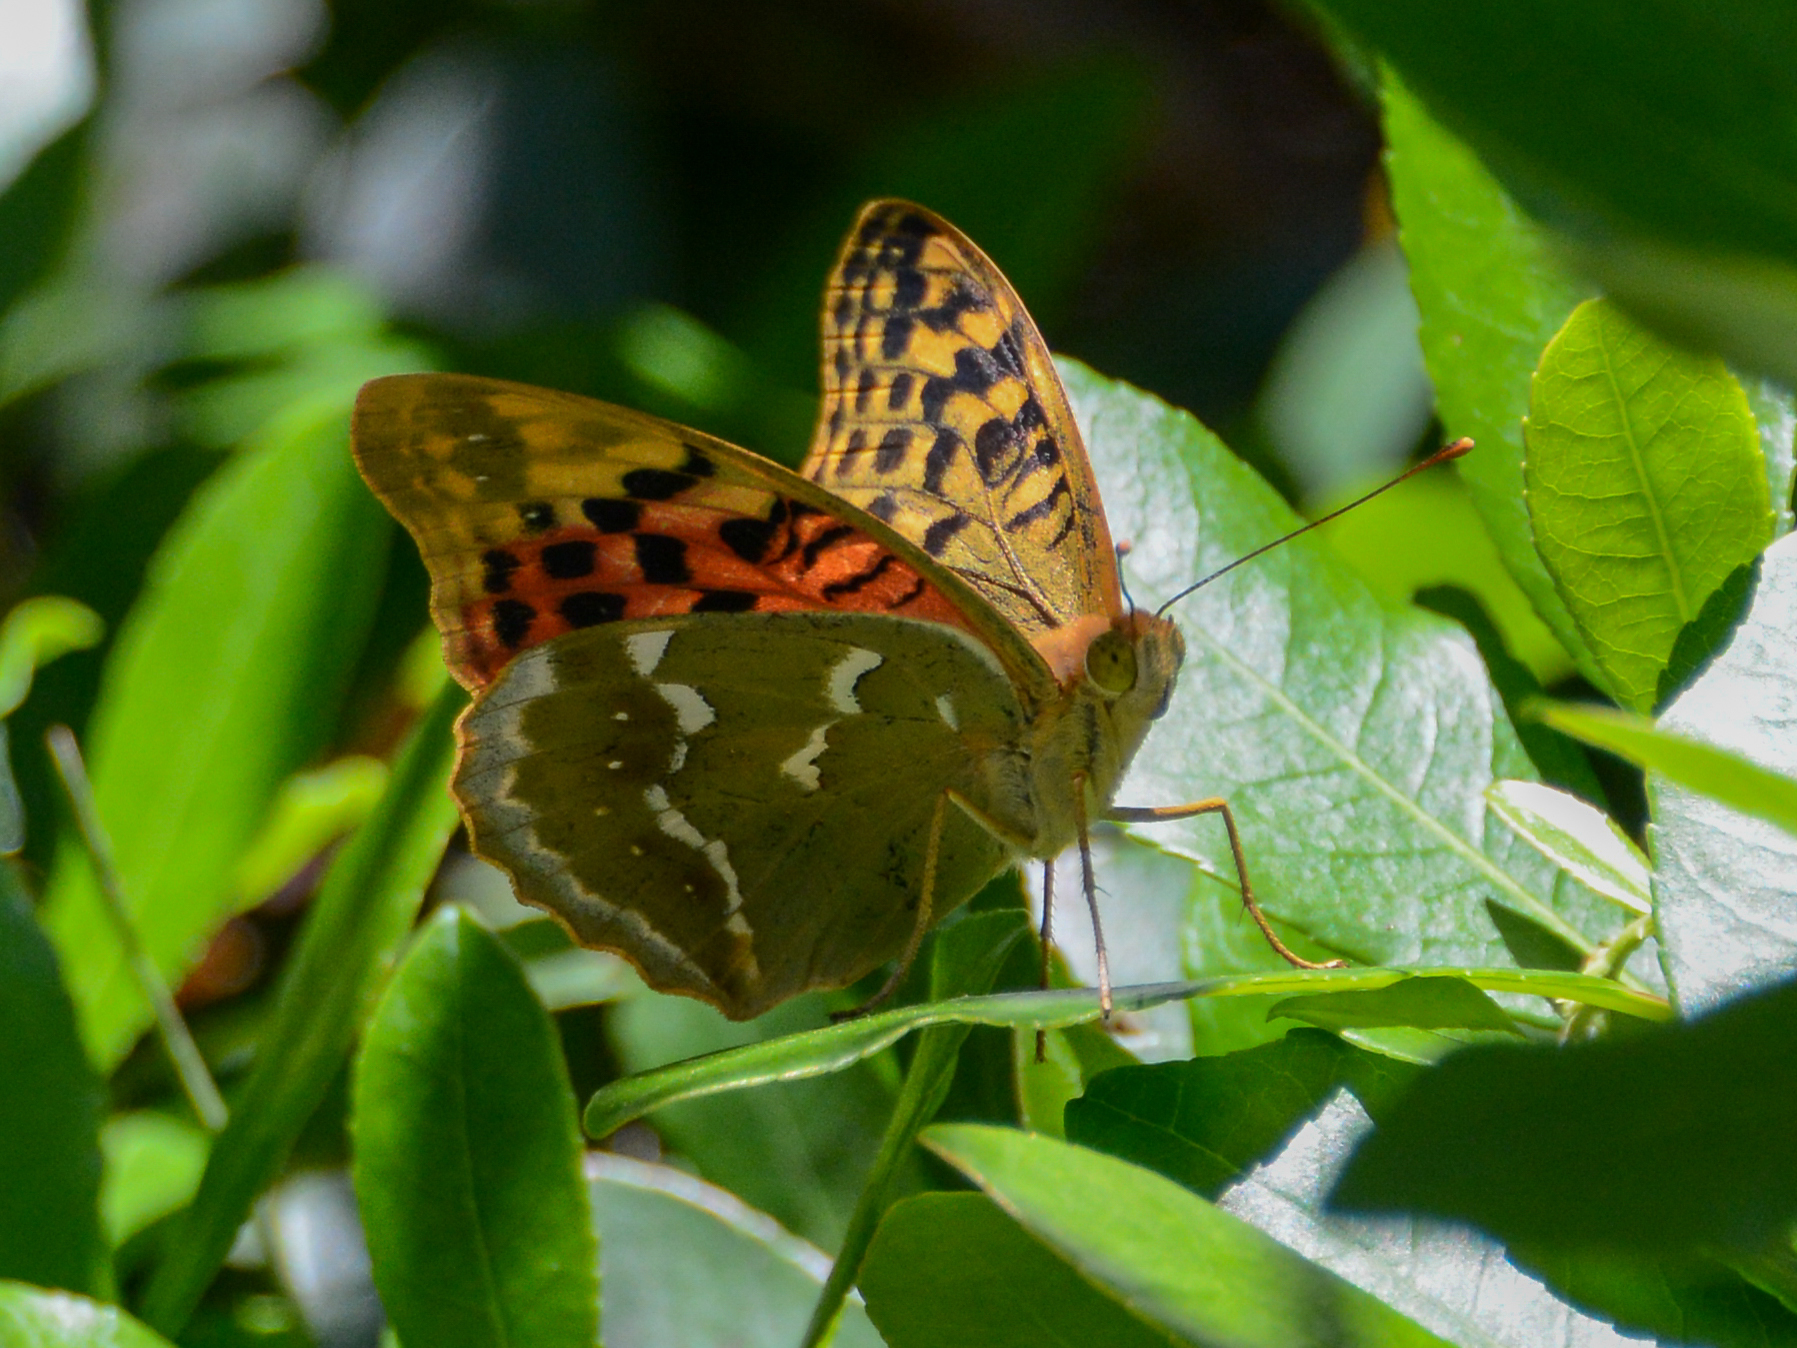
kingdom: Animalia
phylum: Arthropoda
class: Insecta
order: Lepidoptera
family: Nymphalidae
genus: Damora
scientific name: Damora pandora
